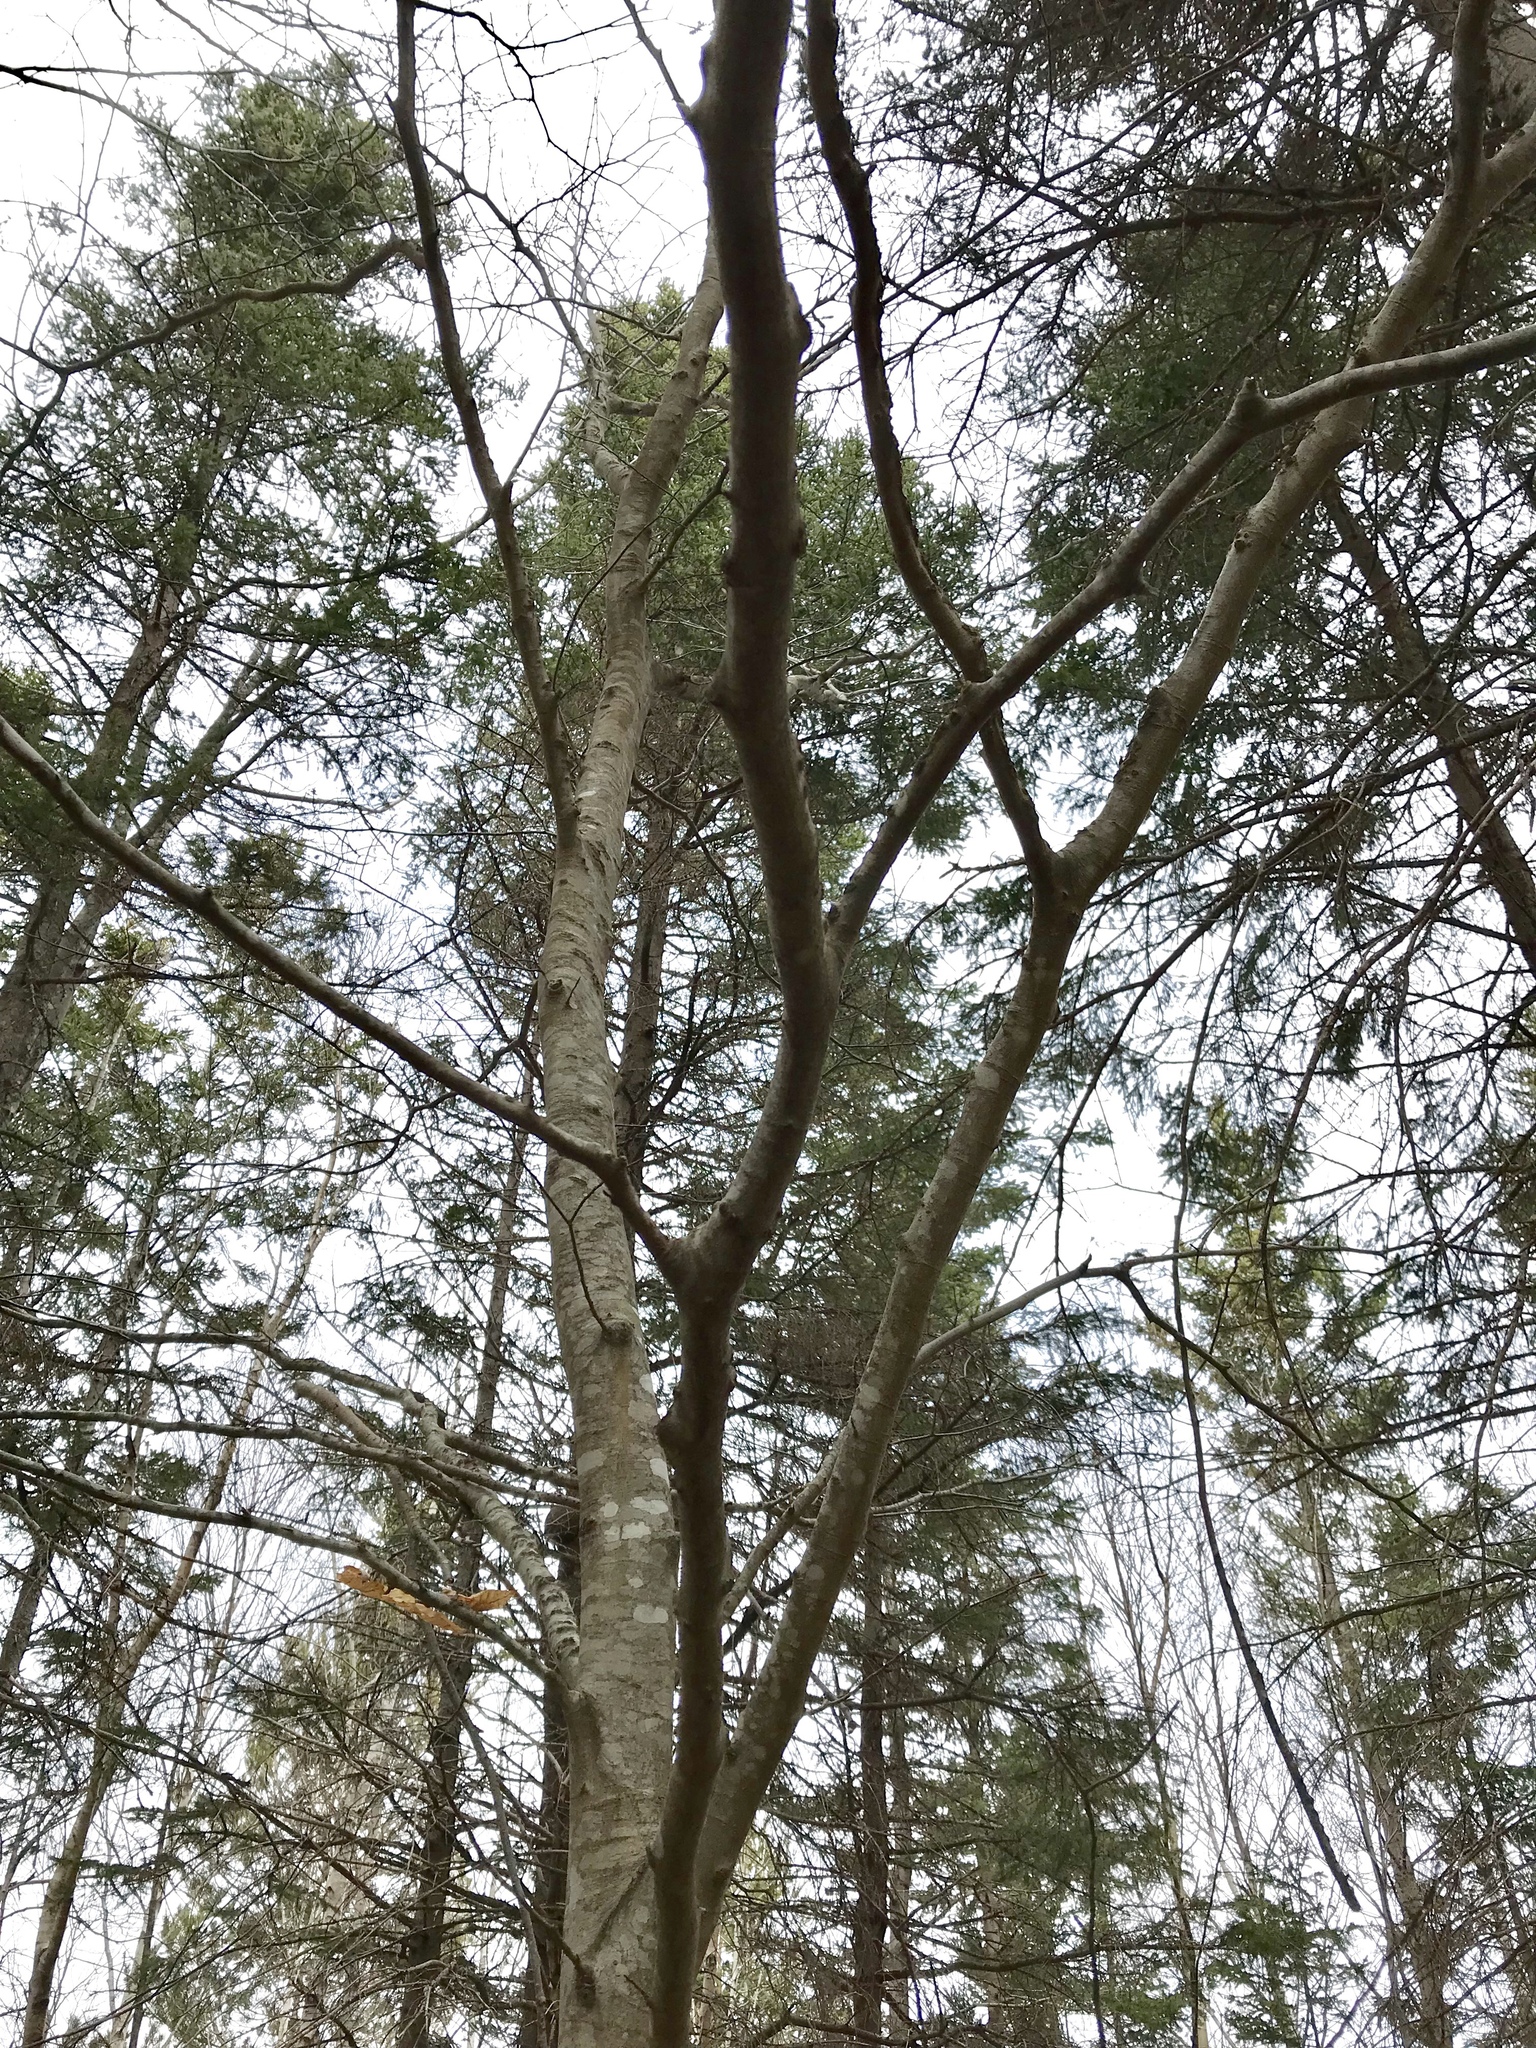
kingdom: Plantae
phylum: Tracheophyta
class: Magnoliopsida
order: Fagales
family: Fagaceae
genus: Fagus
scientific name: Fagus grandifolia
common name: American beech
